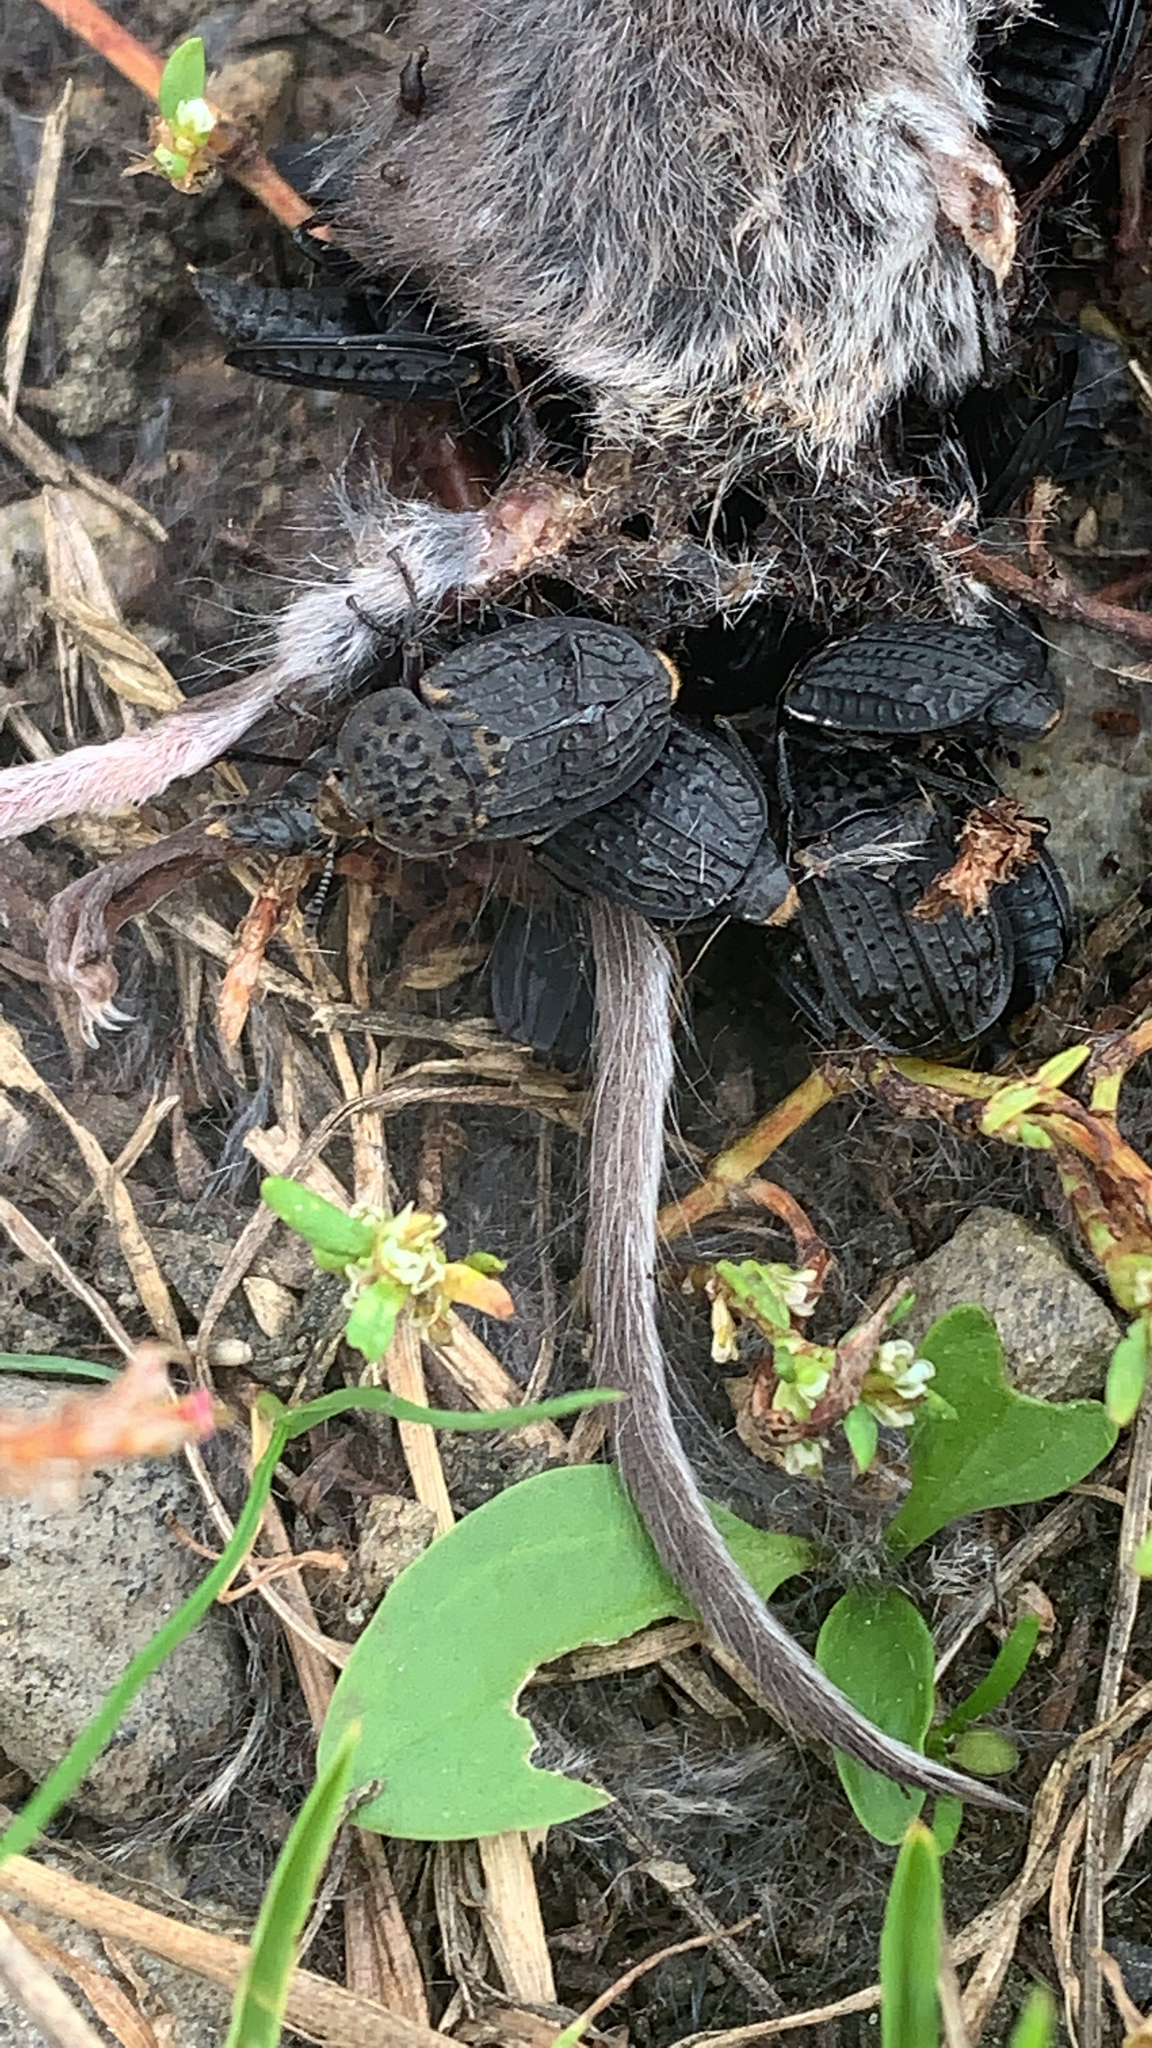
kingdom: Animalia
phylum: Arthropoda
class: Insecta
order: Coleoptera
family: Staphylinidae
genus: Thanatophilus
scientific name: Thanatophilus rugosus
